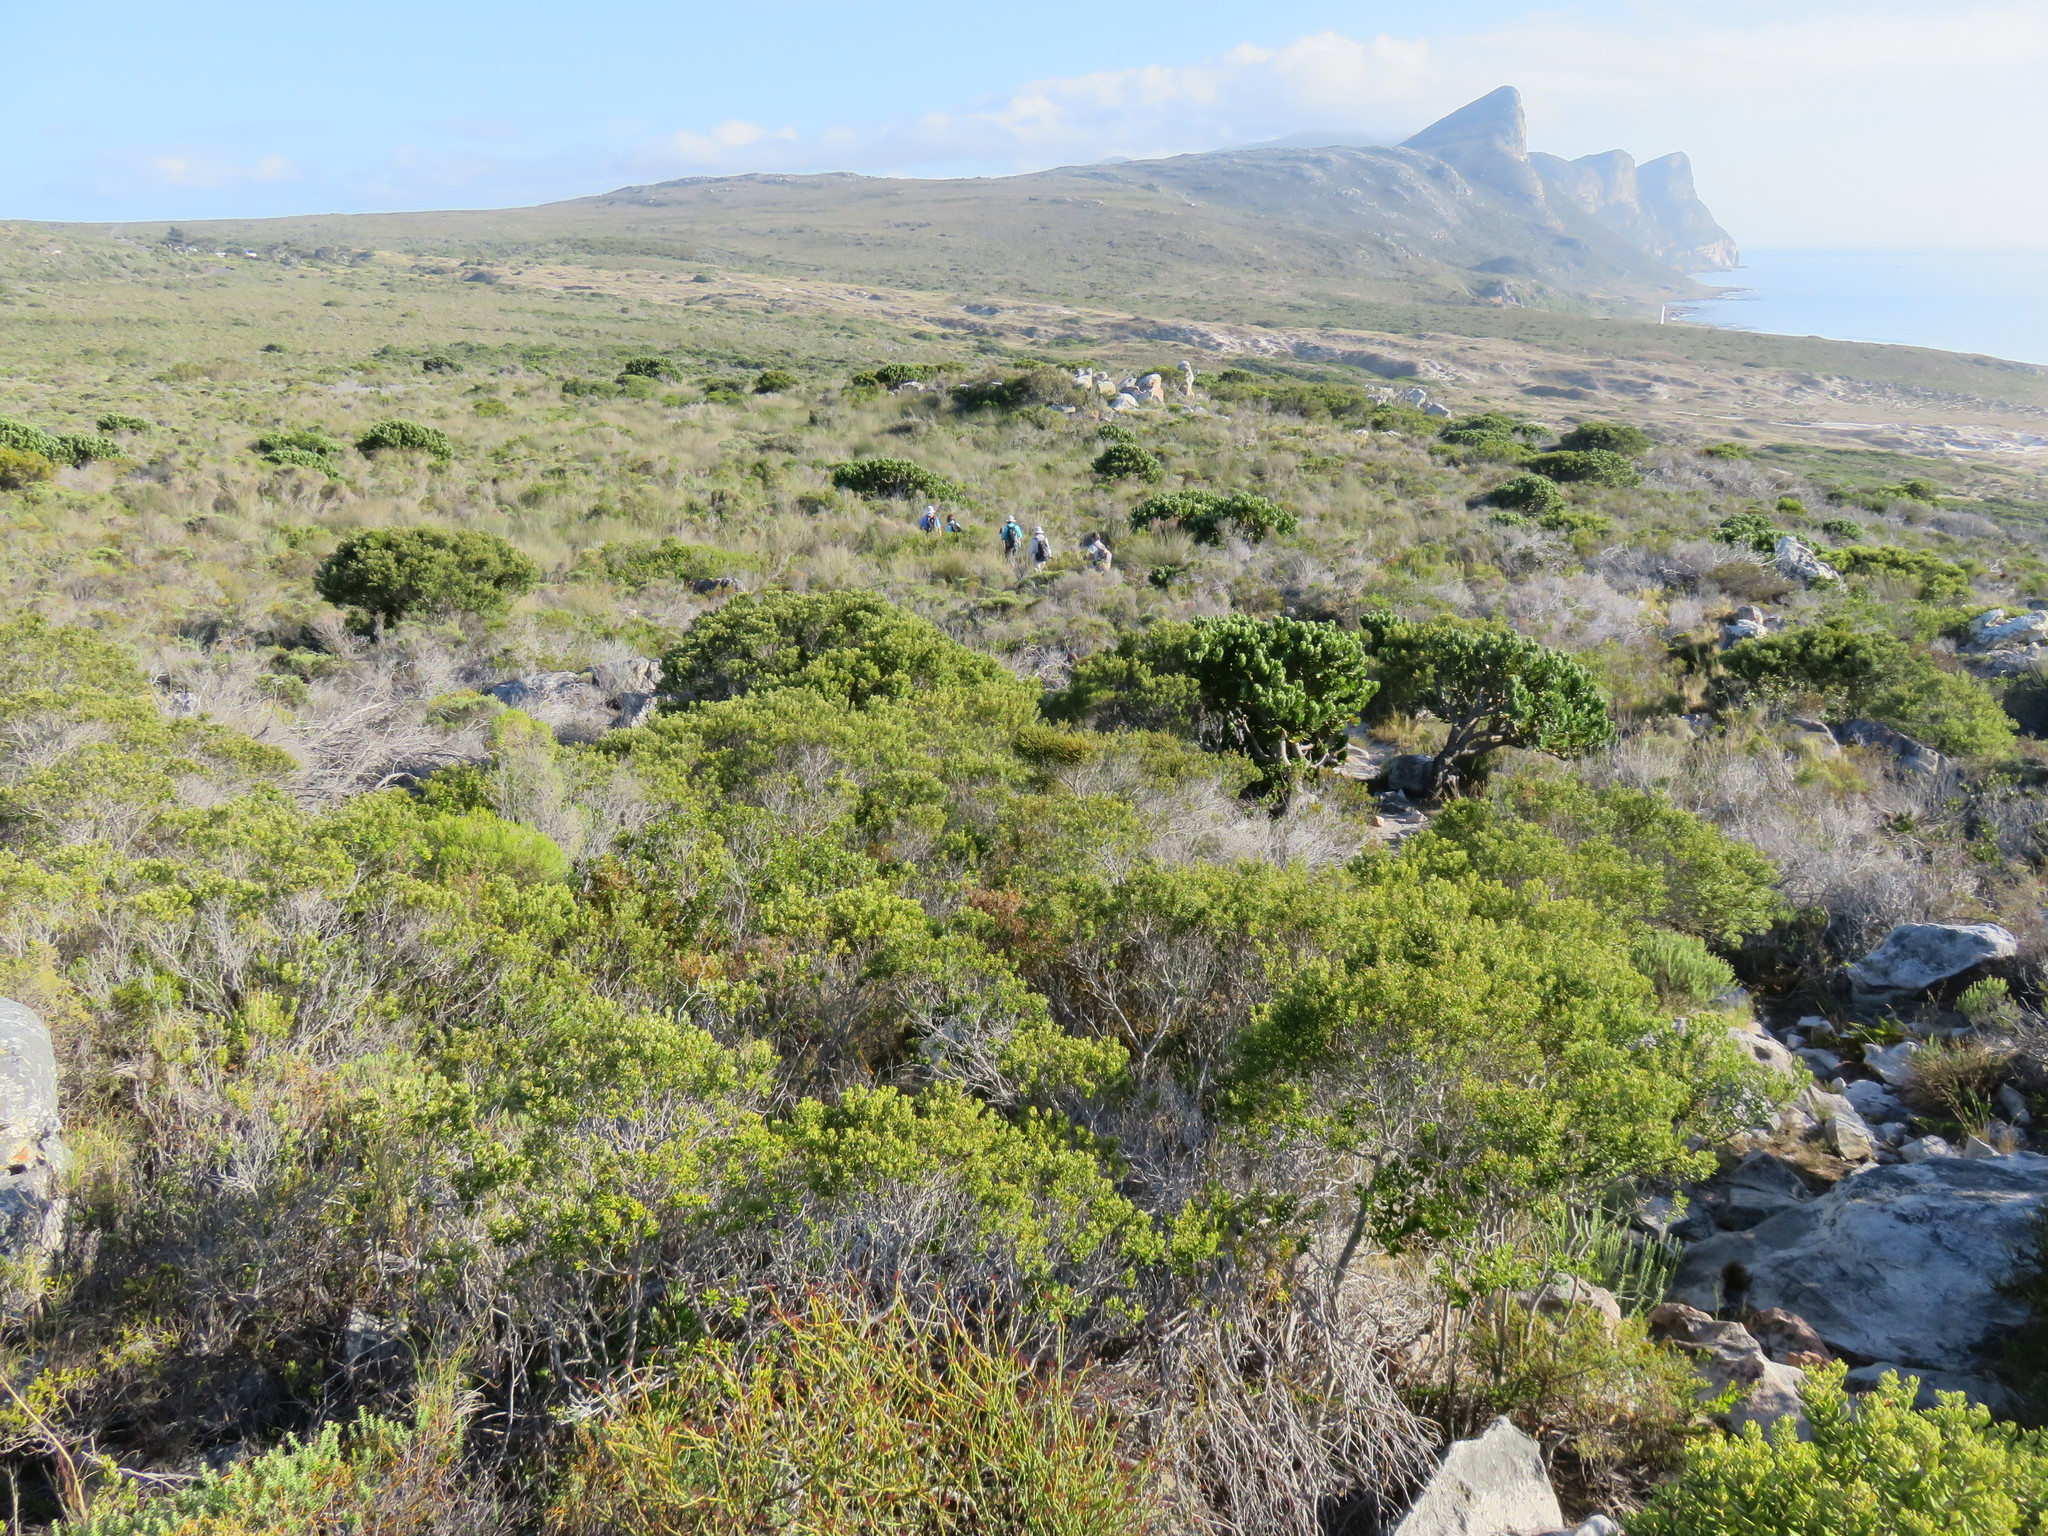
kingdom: Plantae
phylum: Tracheophyta
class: Magnoliopsida
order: Sapindales
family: Rutaceae
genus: Coleonema
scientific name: Coleonema album
